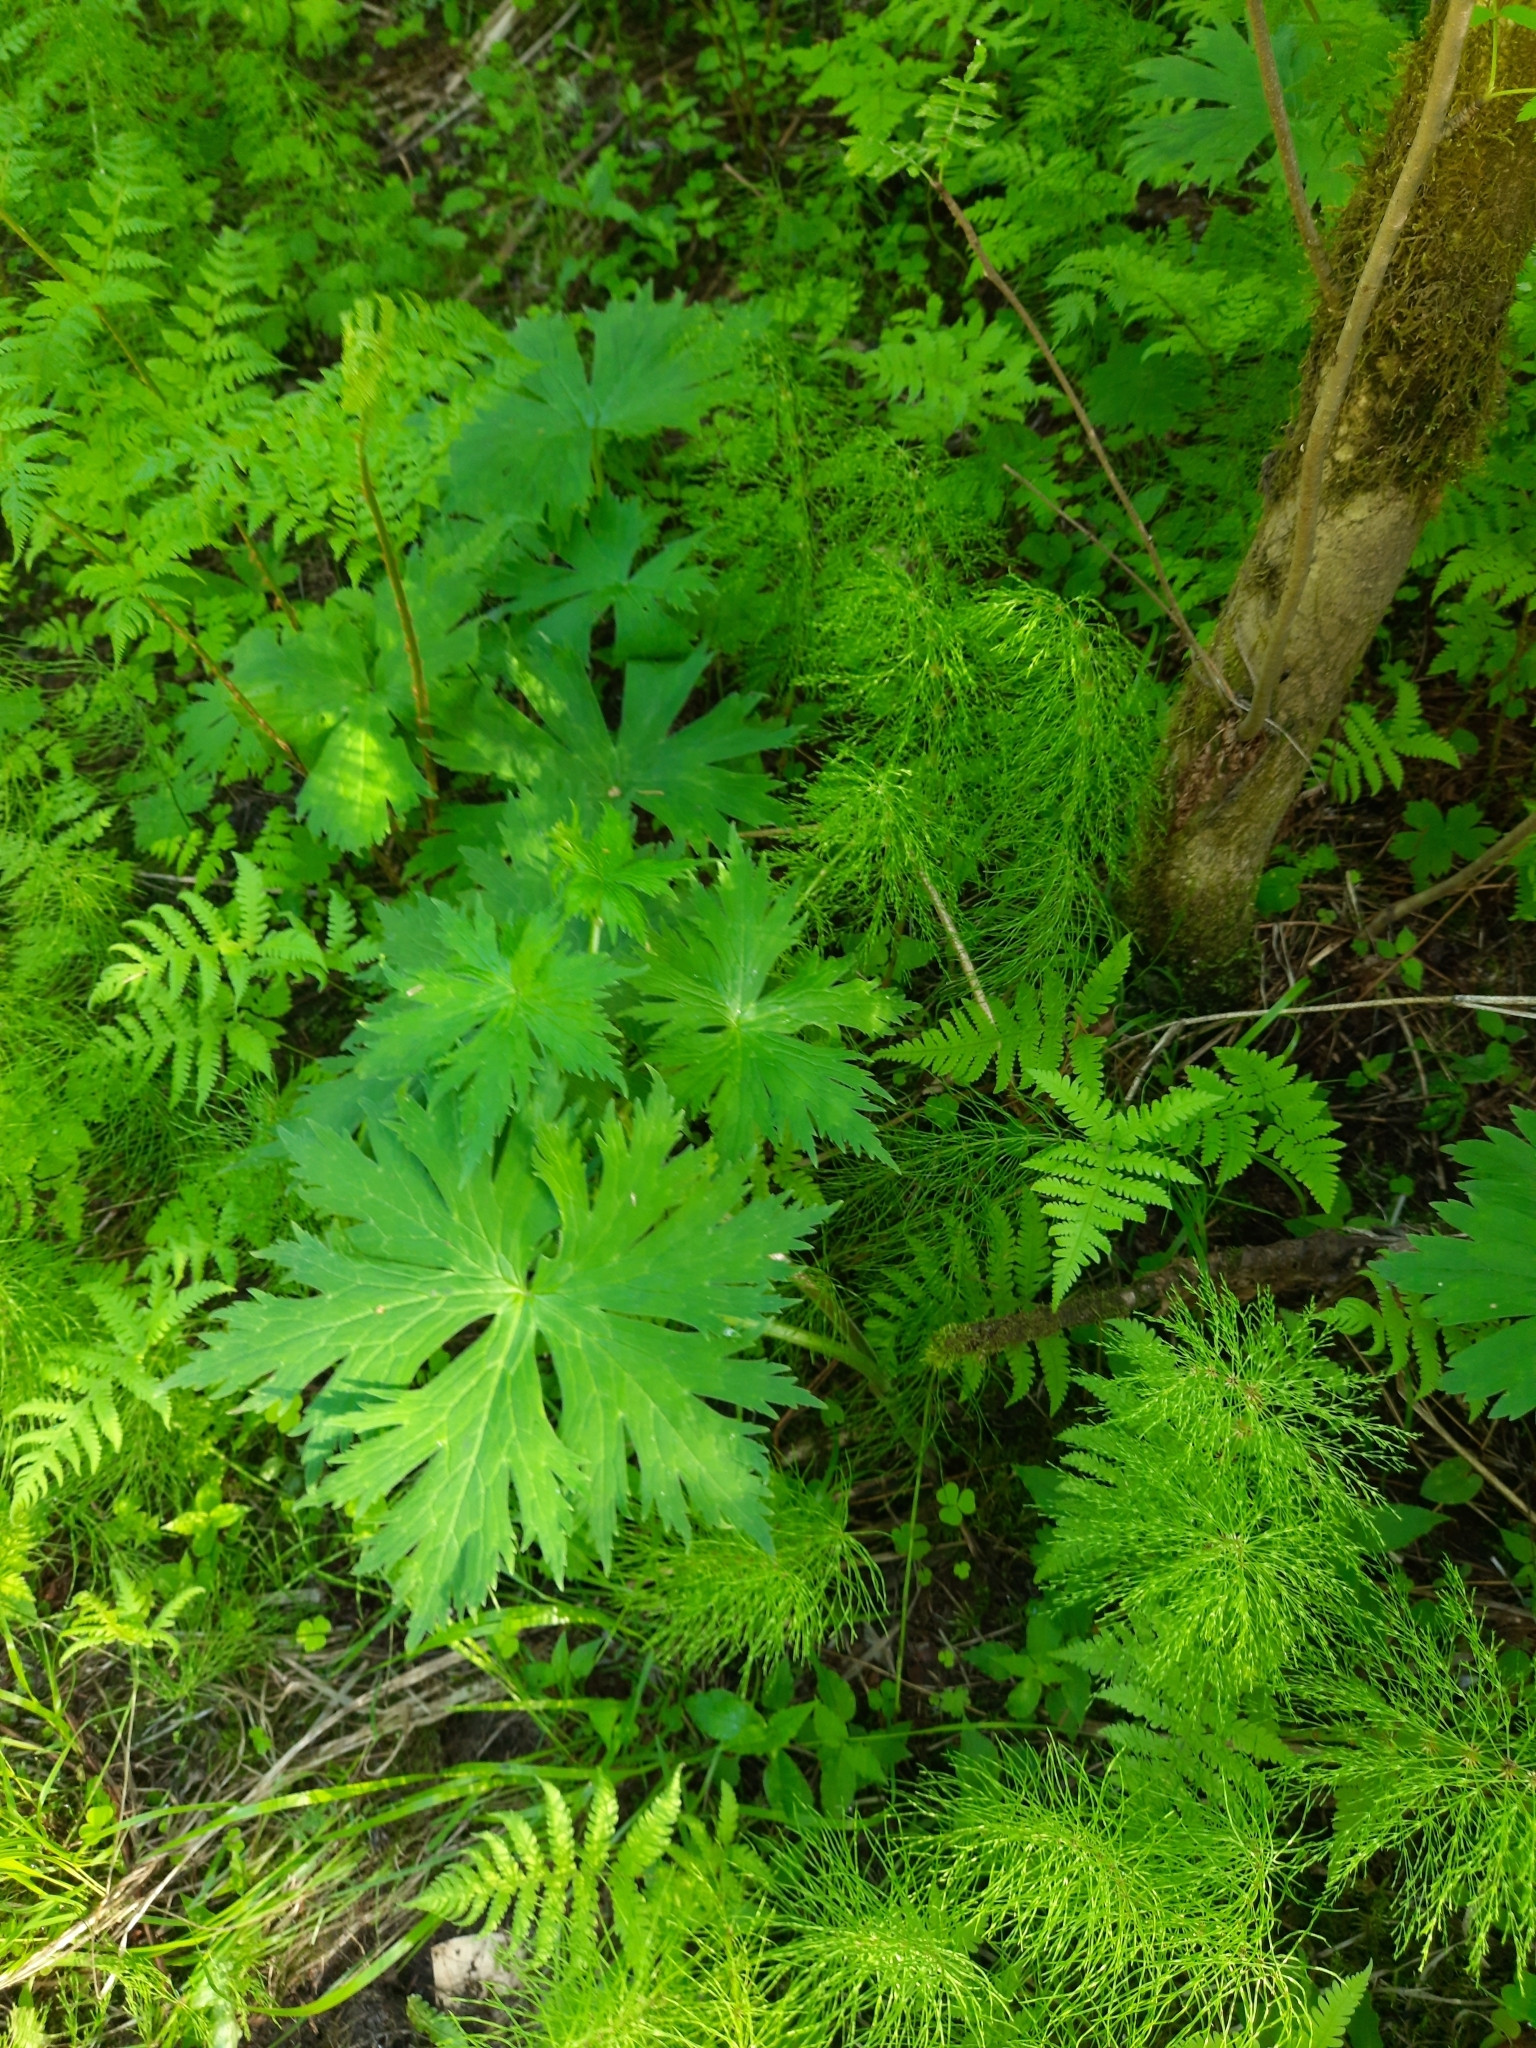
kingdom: Plantae
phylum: Tracheophyta
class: Magnoliopsida
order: Ranunculales
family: Ranunculaceae
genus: Aconitum
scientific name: Aconitum septentrionale
